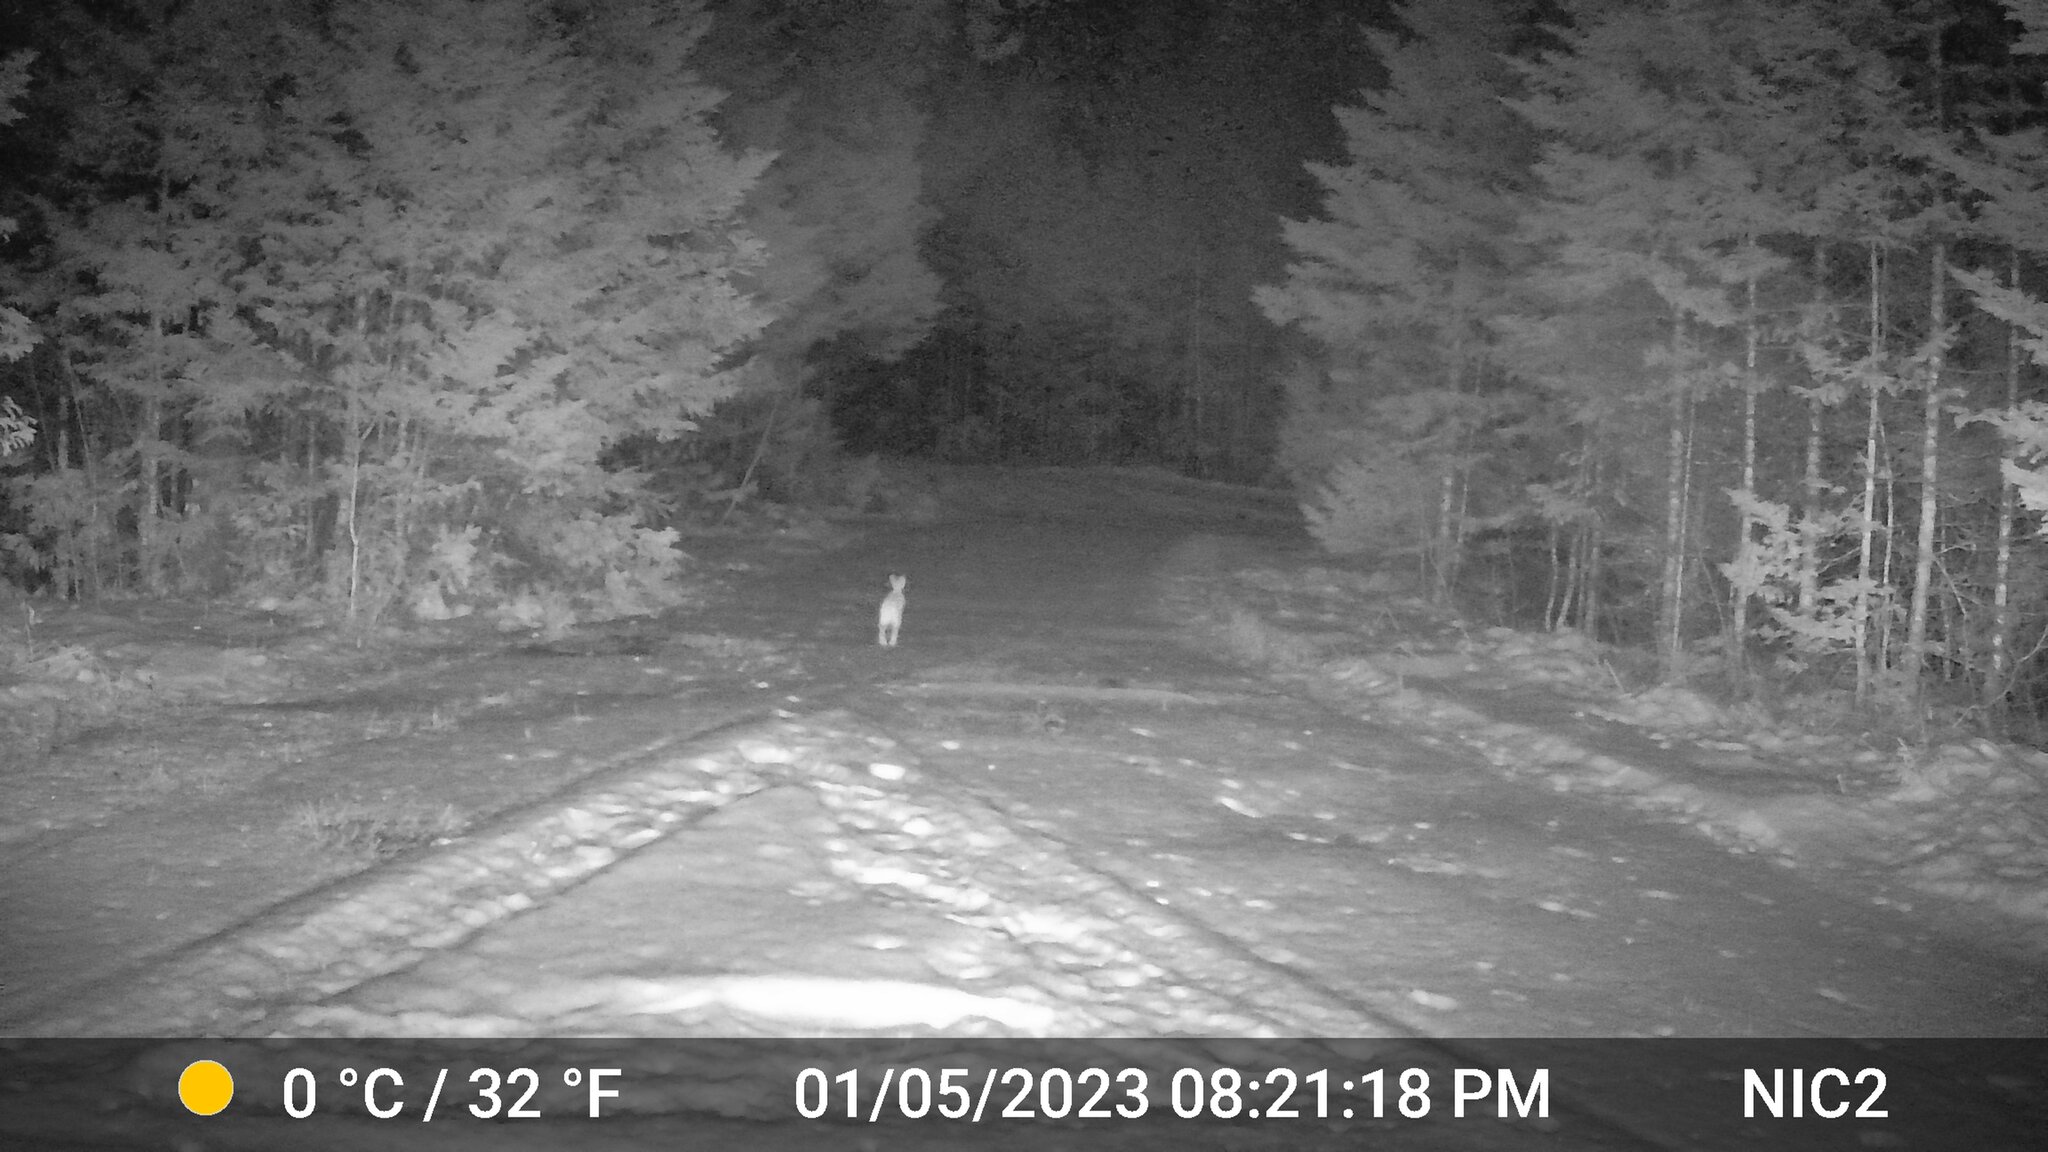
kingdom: Animalia
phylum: Chordata
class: Mammalia
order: Lagomorpha
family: Leporidae
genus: Lepus
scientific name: Lepus americanus
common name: Snowshoe hare
